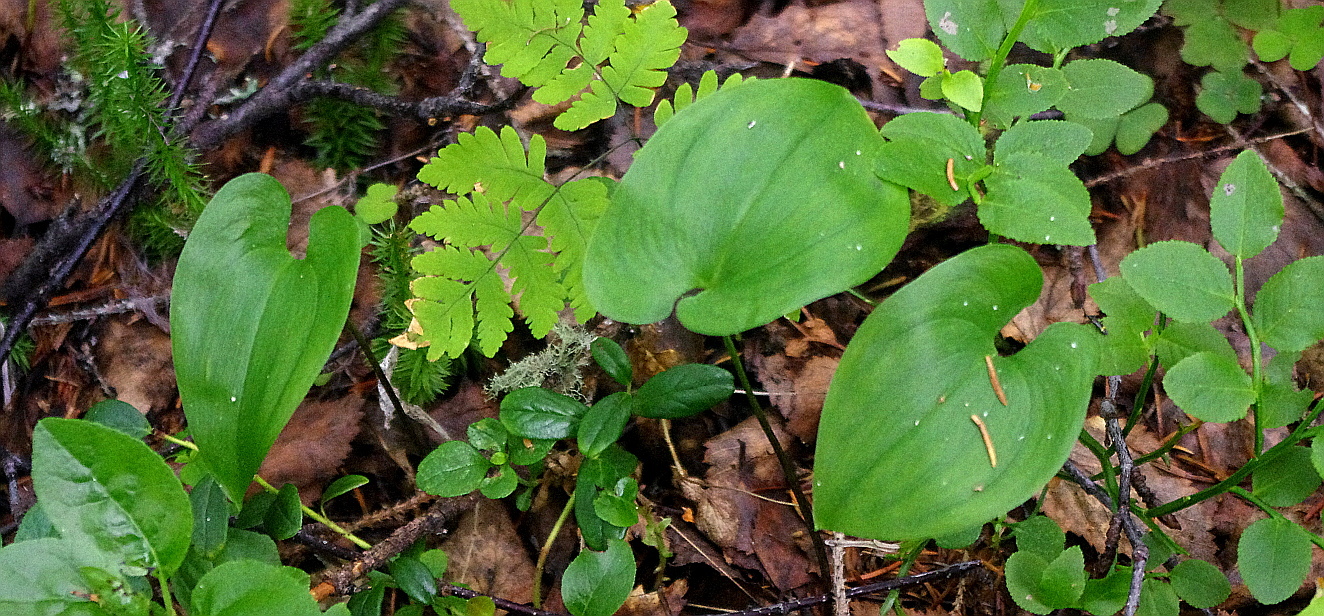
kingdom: Plantae
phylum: Tracheophyta
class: Liliopsida
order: Asparagales
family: Asparagaceae
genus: Maianthemum
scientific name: Maianthemum bifolium
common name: May lily
